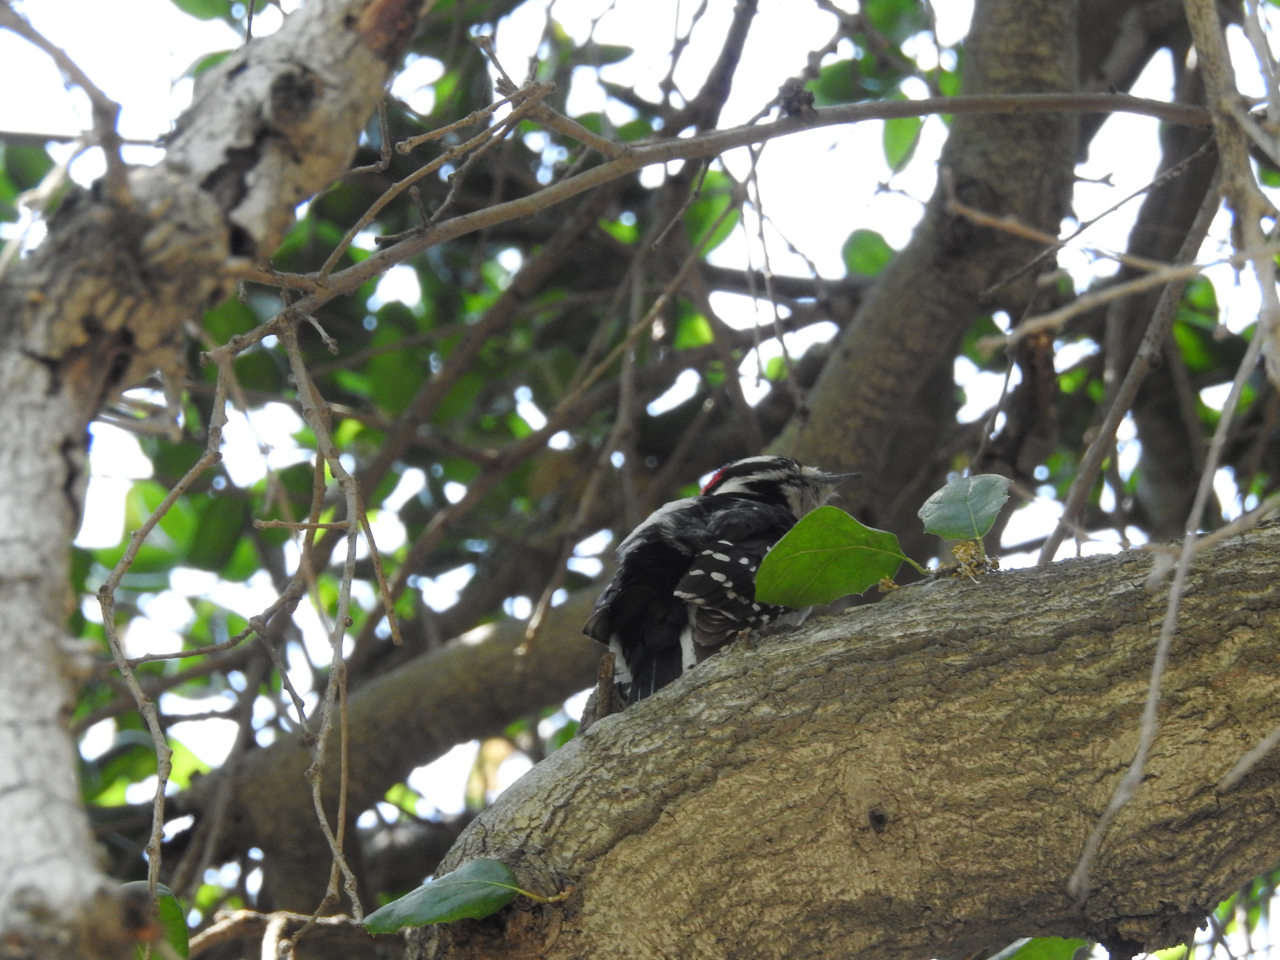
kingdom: Animalia
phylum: Chordata
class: Aves
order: Piciformes
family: Picidae
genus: Dryobates
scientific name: Dryobates pubescens
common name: Downy woodpecker
